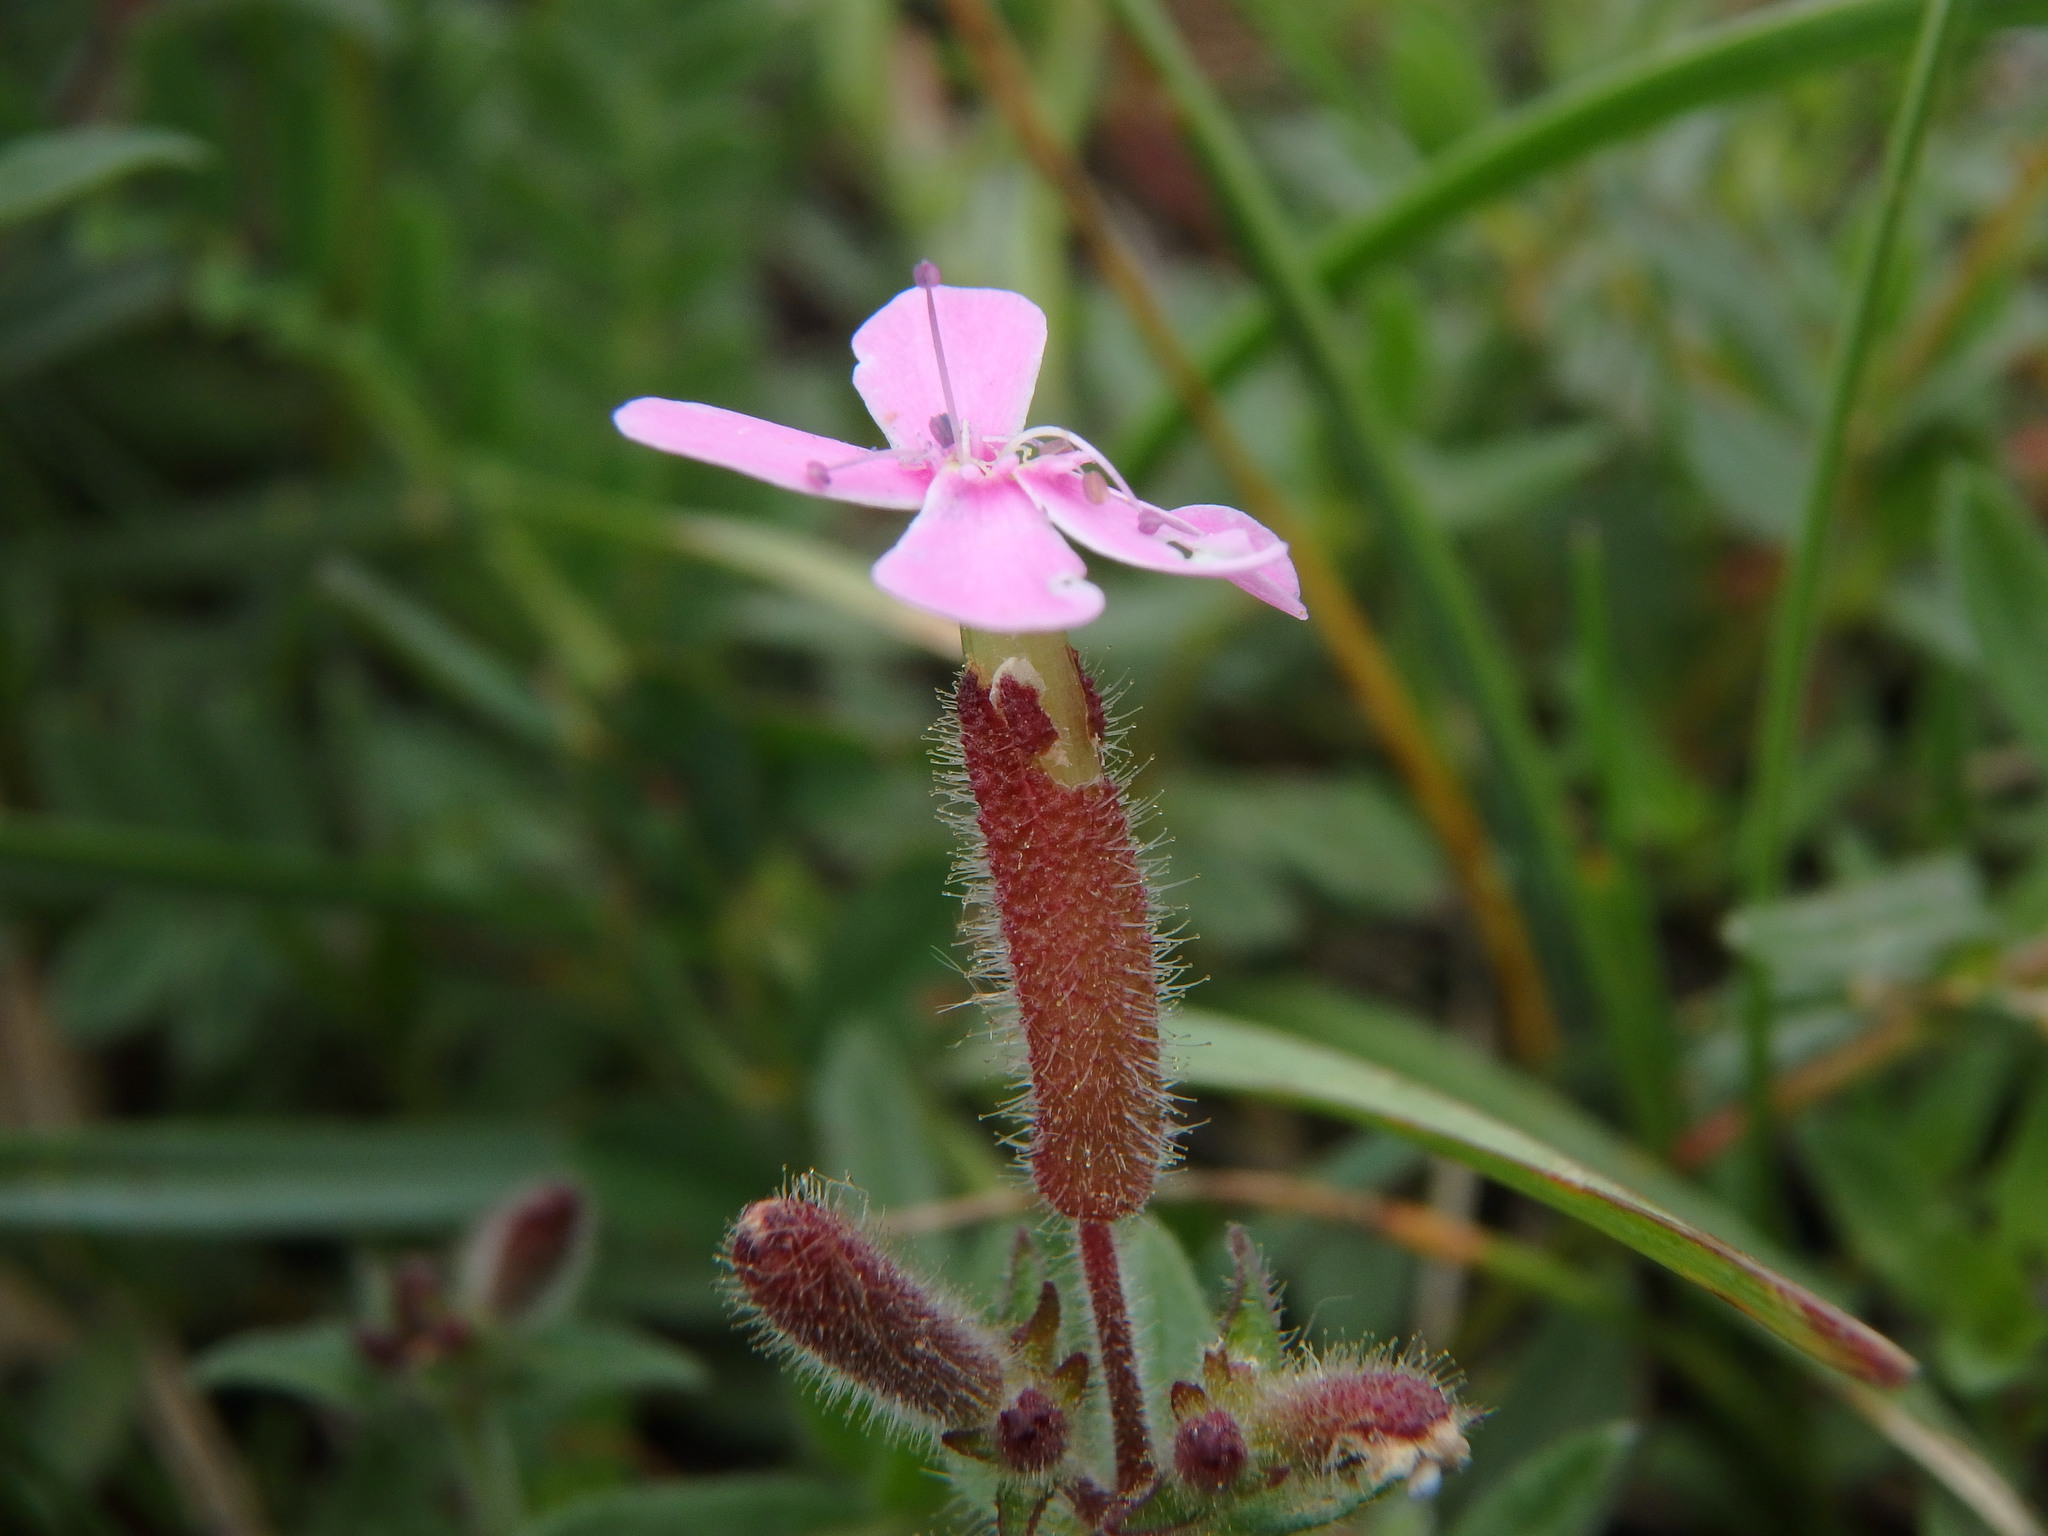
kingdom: Plantae
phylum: Tracheophyta
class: Magnoliopsida
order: Caryophyllales
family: Caryophyllaceae
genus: Saponaria
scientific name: Saponaria ocymoides
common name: Rock soapwort
